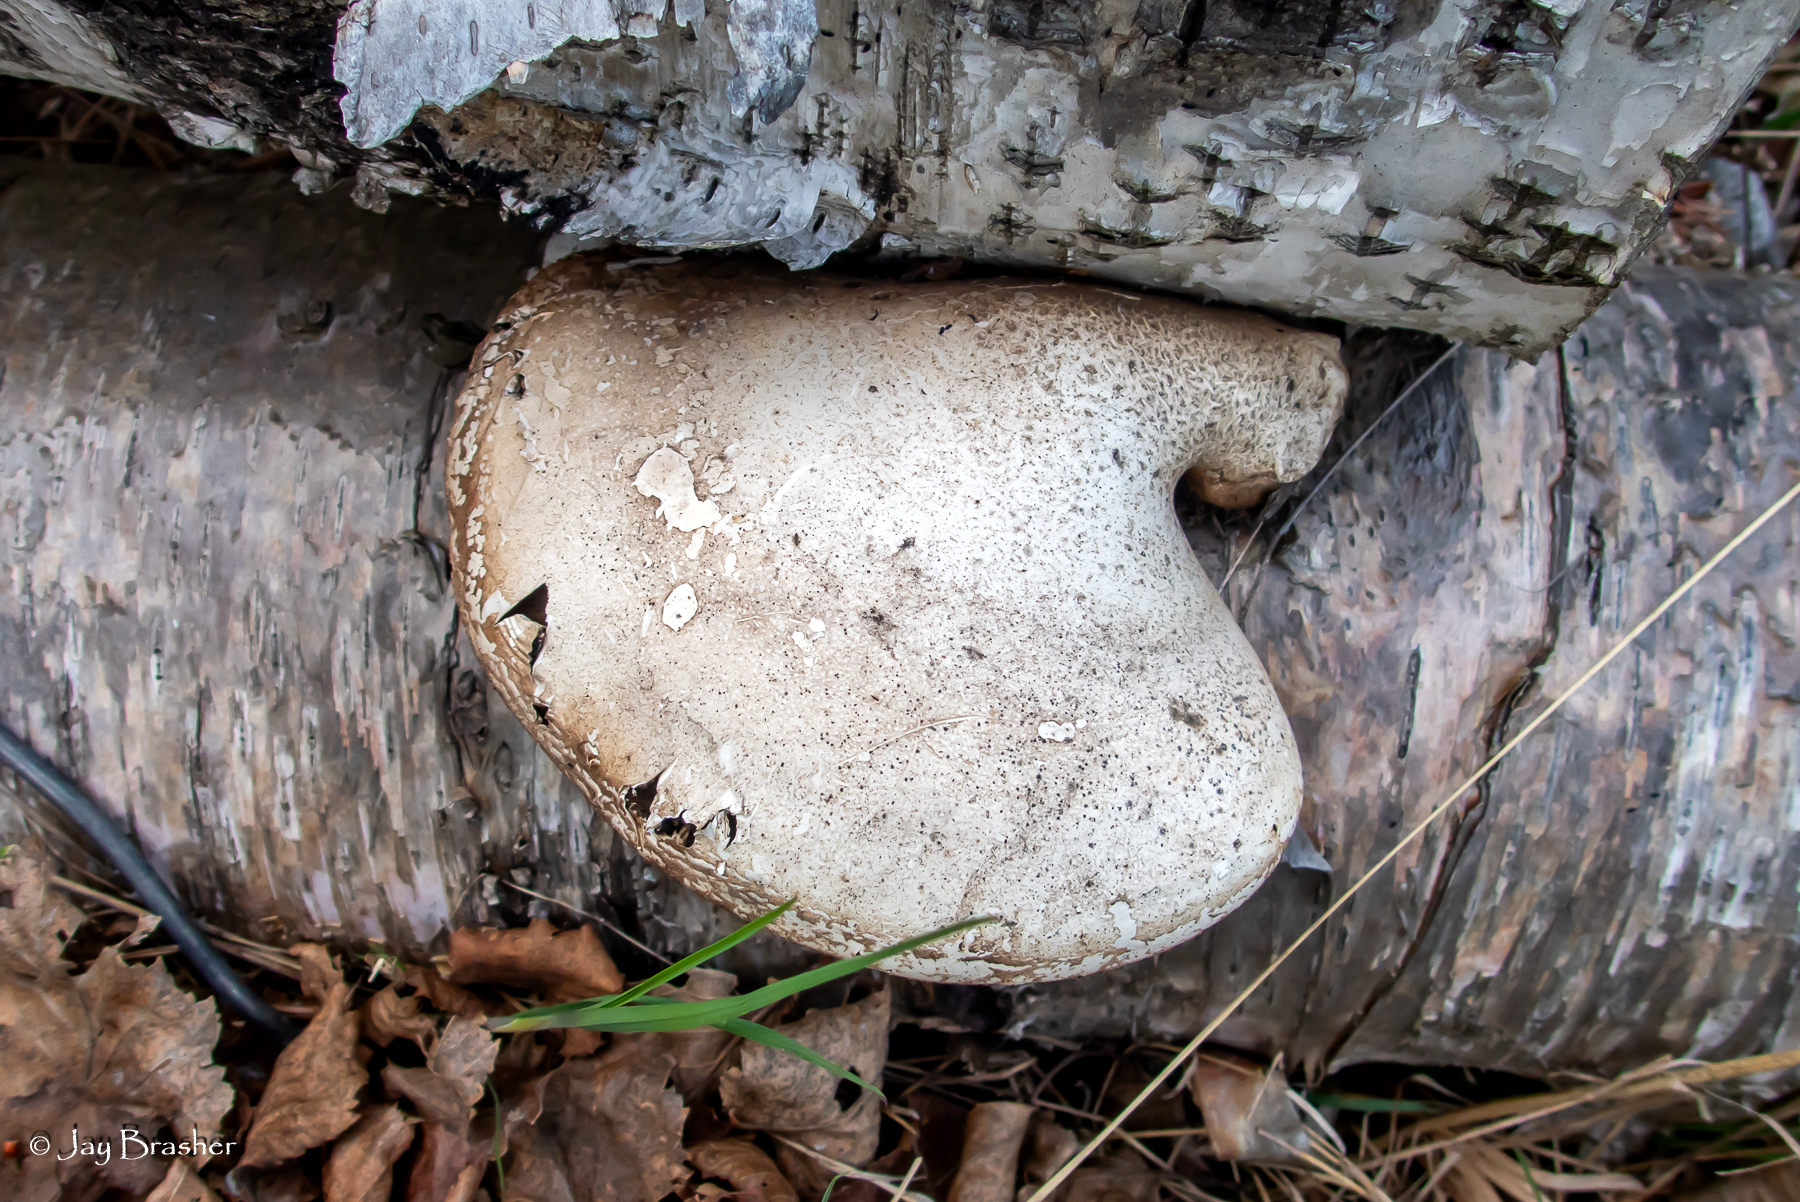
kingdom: Fungi
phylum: Basidiomycota
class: Agaricomycetes
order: Polyporales
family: Fomitopsidaceae
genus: Fomitopsis
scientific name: Fomitopsis betulina
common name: Birch polypore
